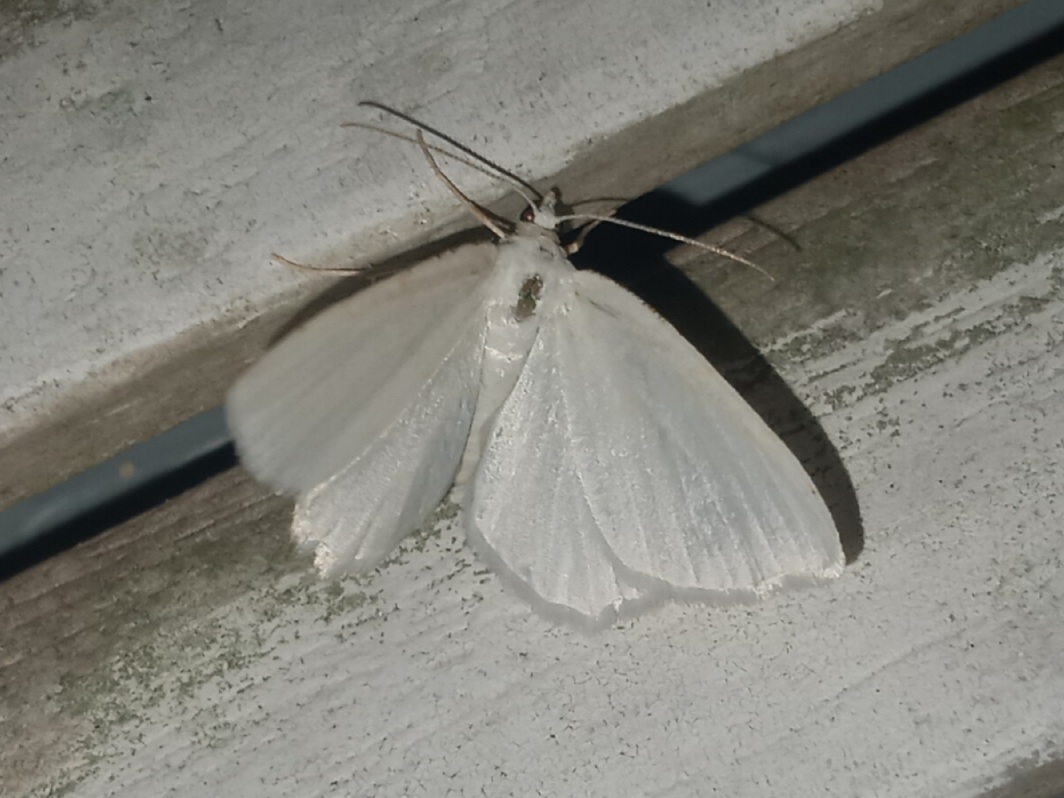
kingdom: Animalia
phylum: Arthropoda
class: Insecta
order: Lepidoptera
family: Geometridae
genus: Lomographa
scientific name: Lomographa vestaliata
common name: White spring moth
